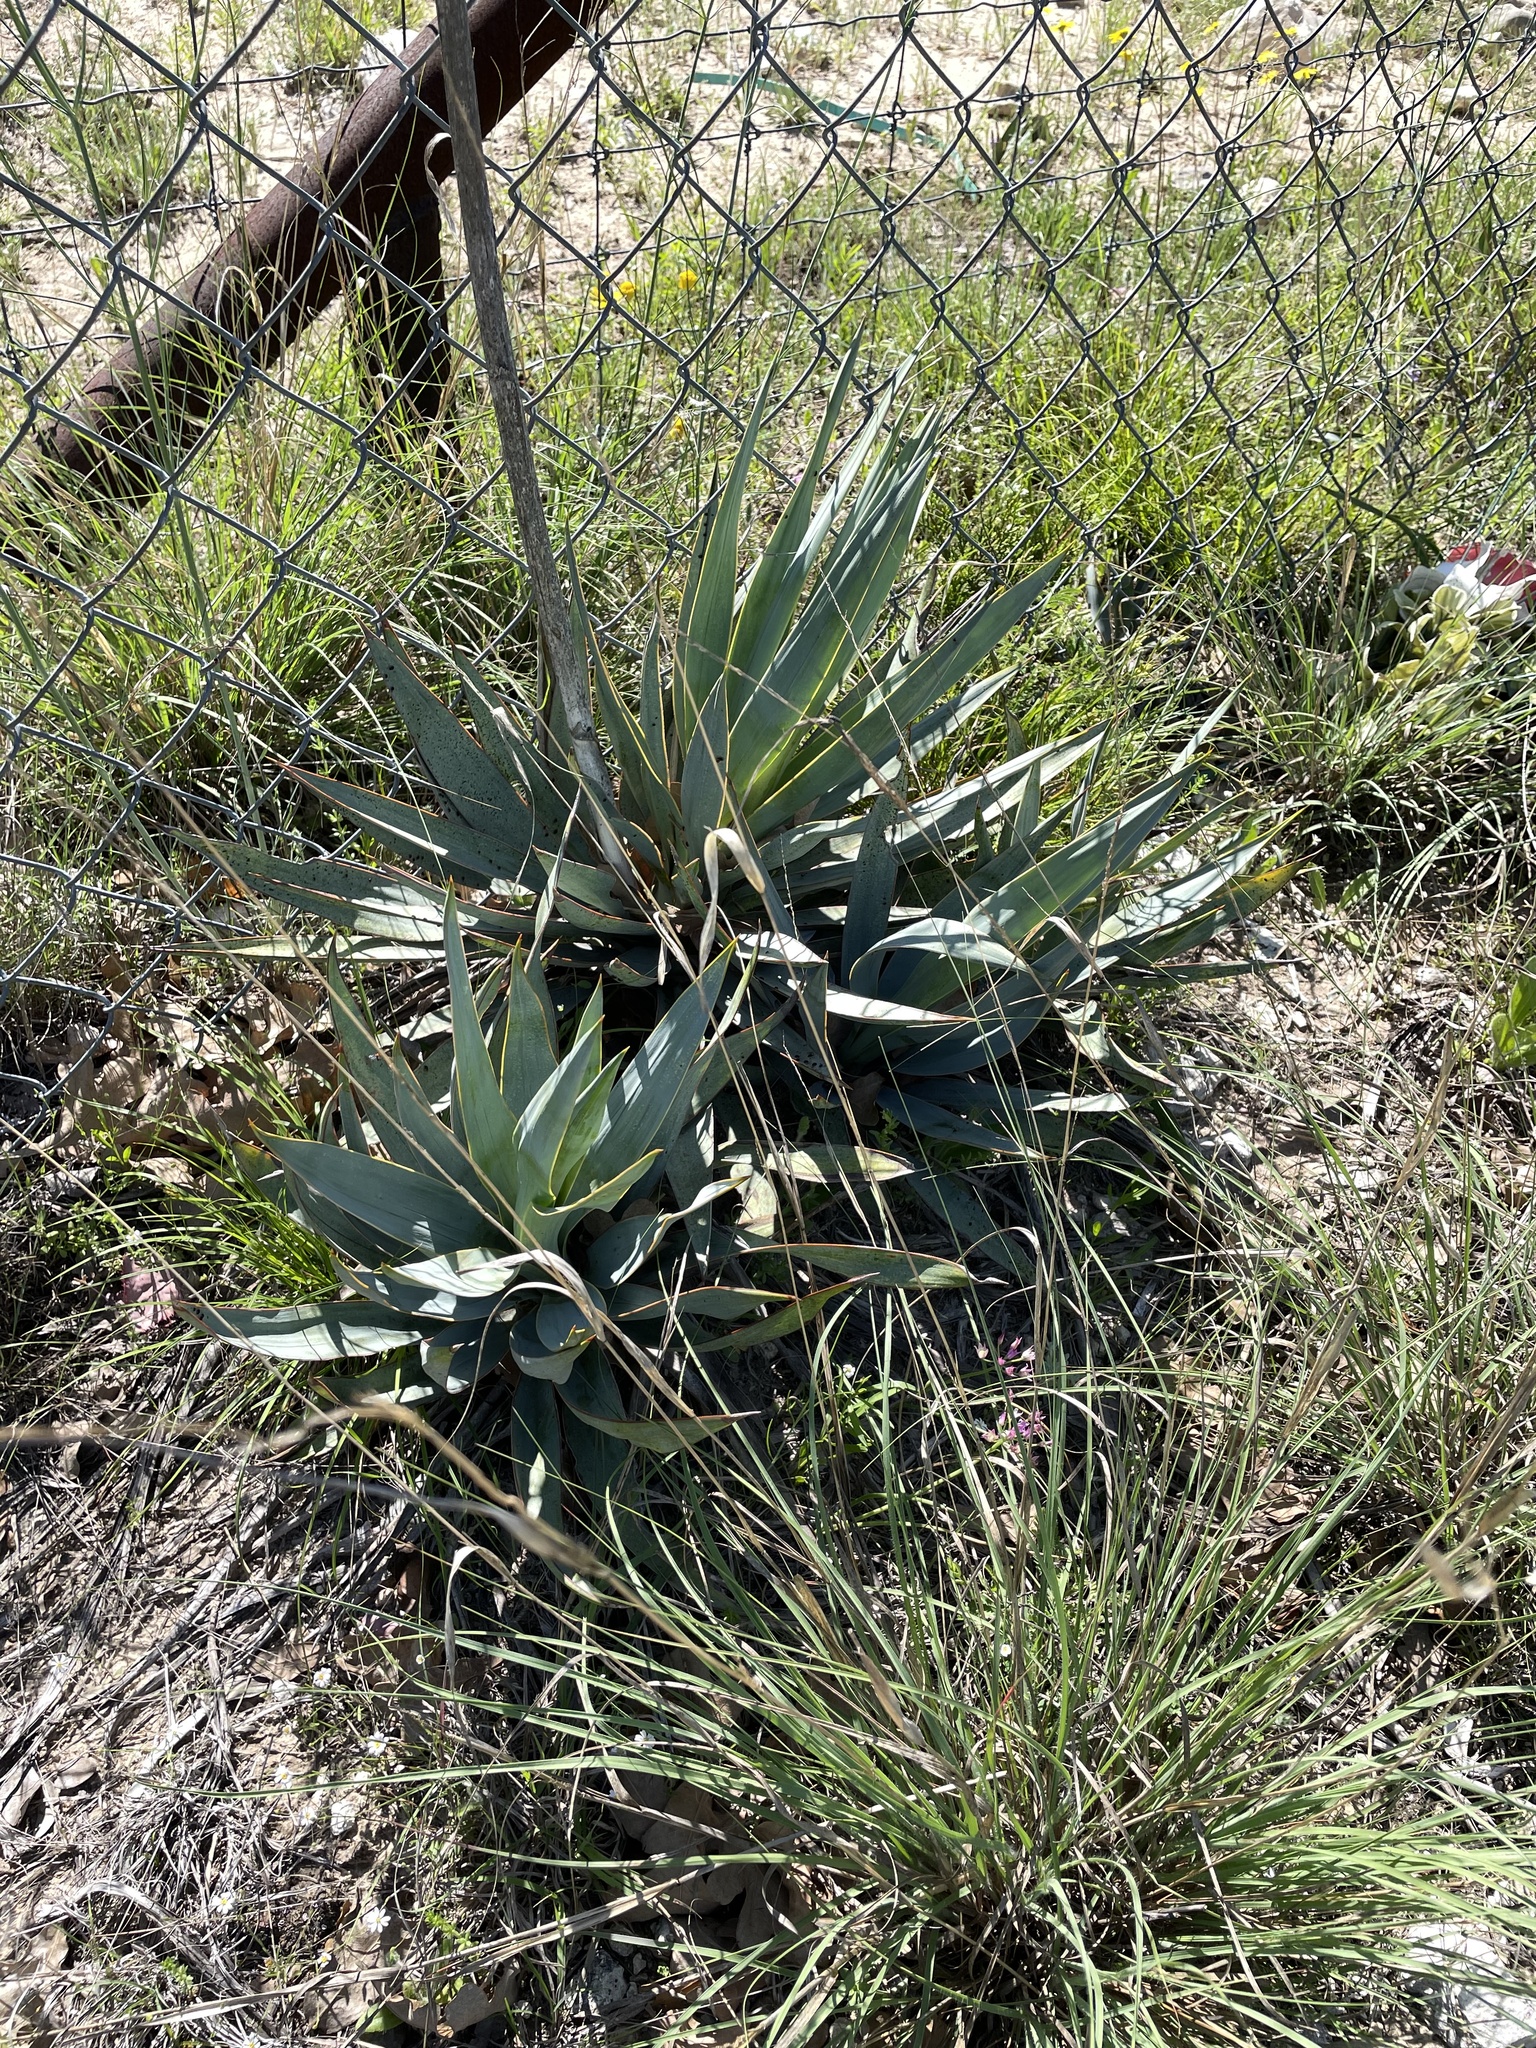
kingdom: Plantae
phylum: Tracheophyta
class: Liliopsida
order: Asparagales
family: Asparagaceae
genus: Yucca
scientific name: Yucca pallida
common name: Pale leaf yucca
